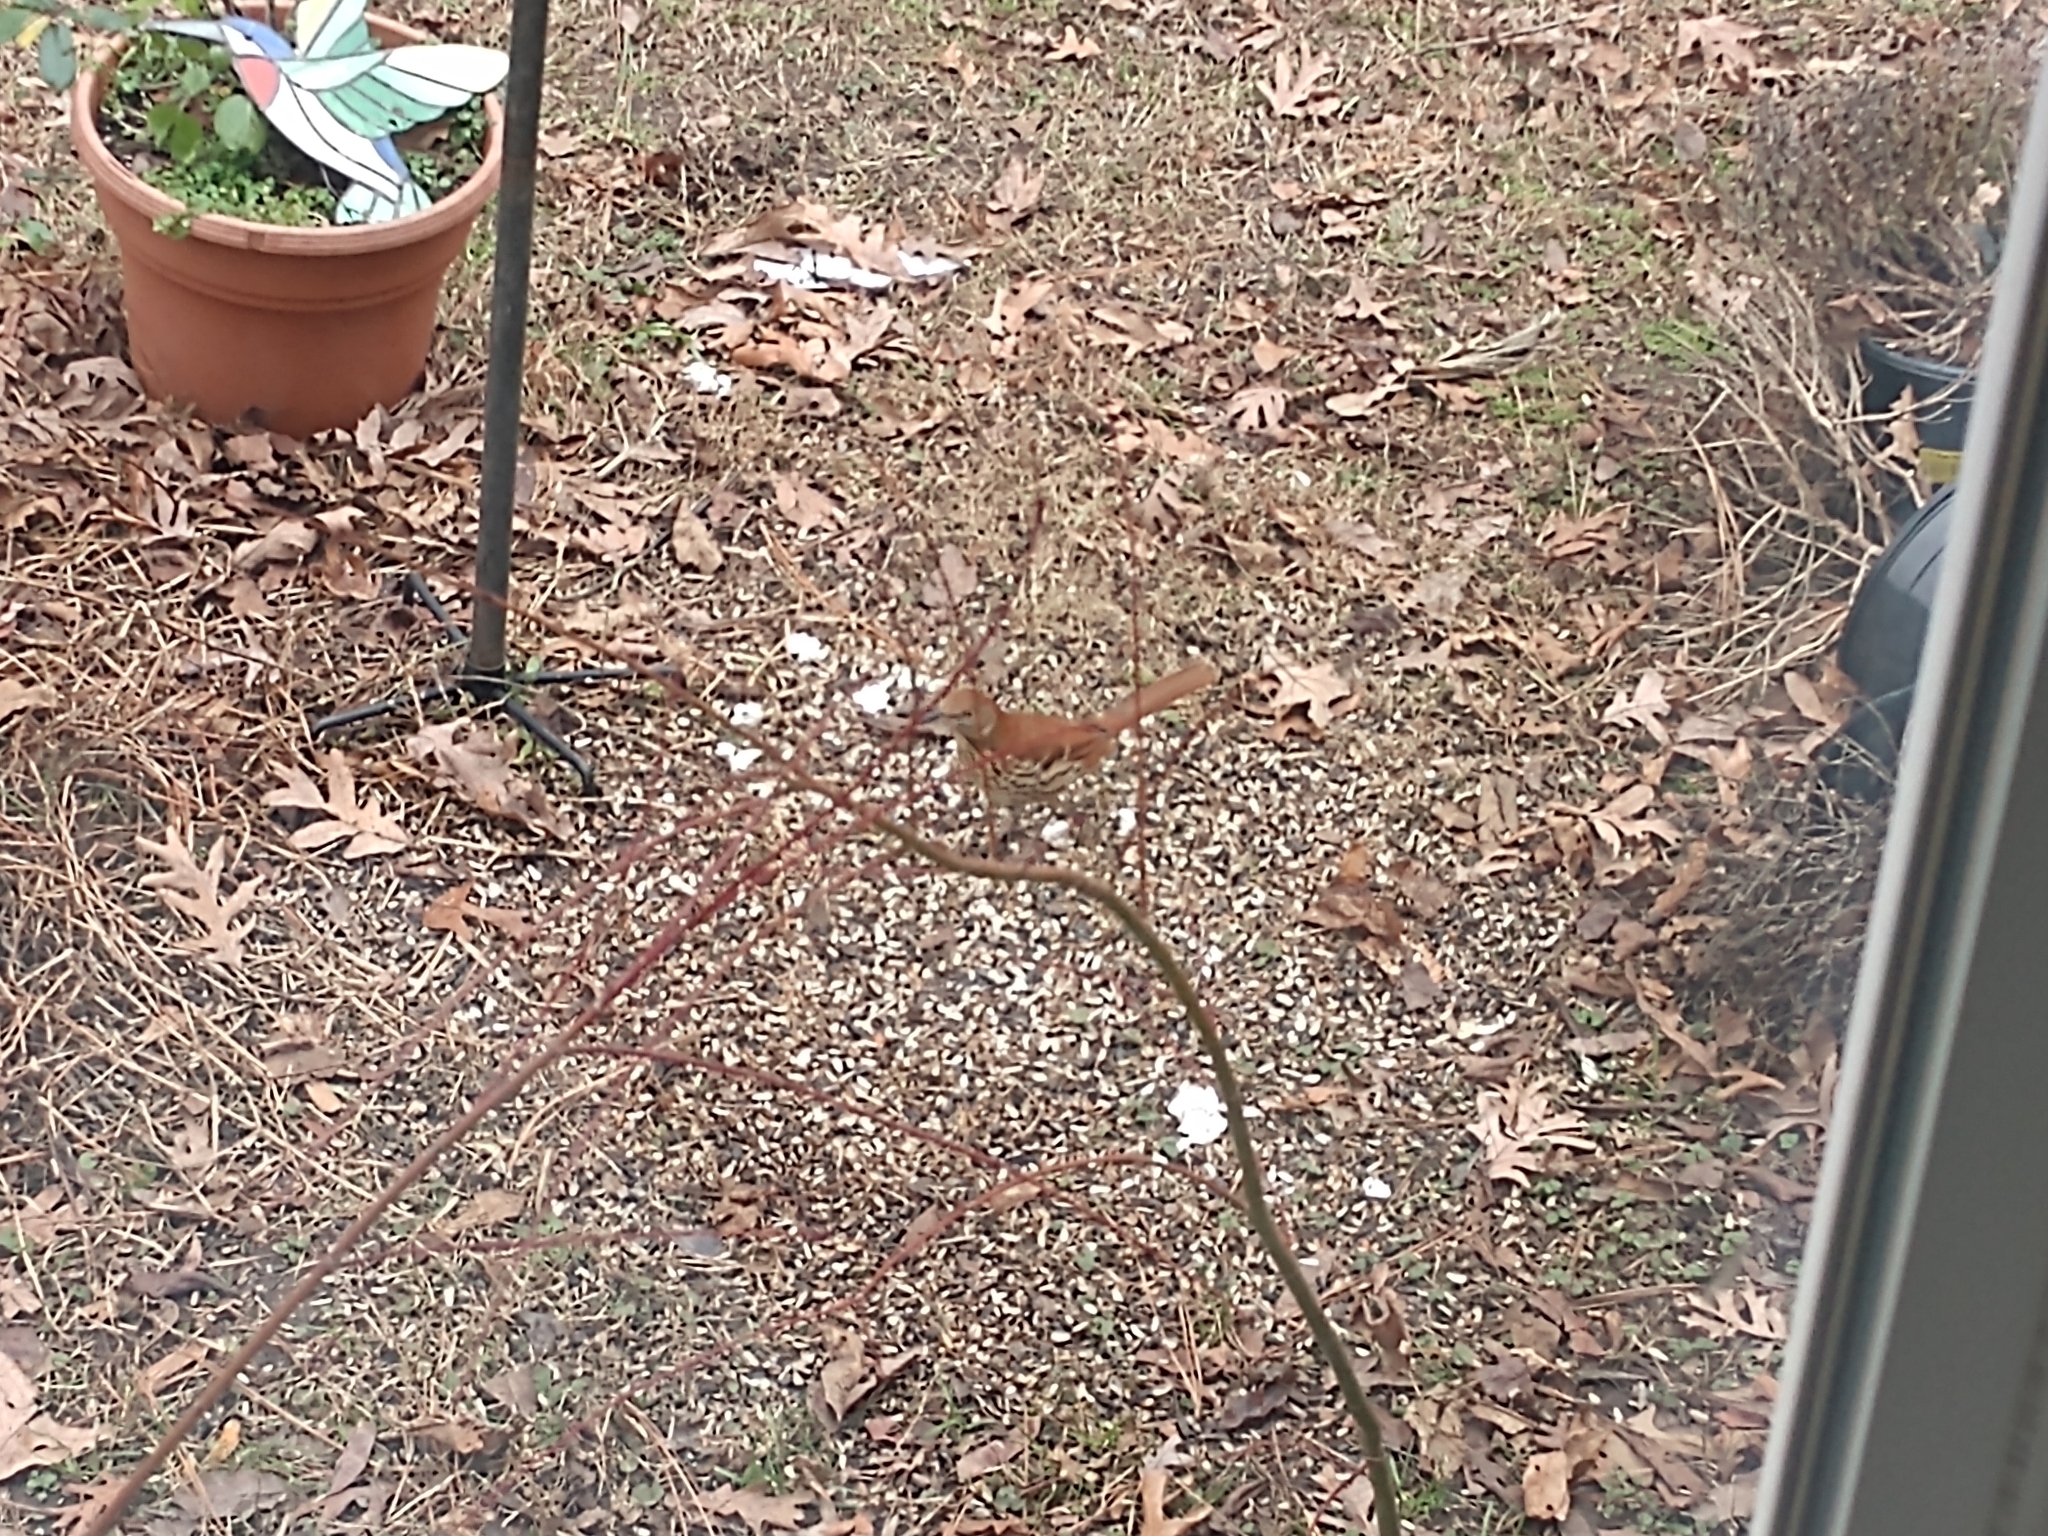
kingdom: Animalia
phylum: Chordata
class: Aves
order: Passeriformes
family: Mimidae
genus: Toxostoma
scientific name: Toxostoma rufum
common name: Brown thrasher
